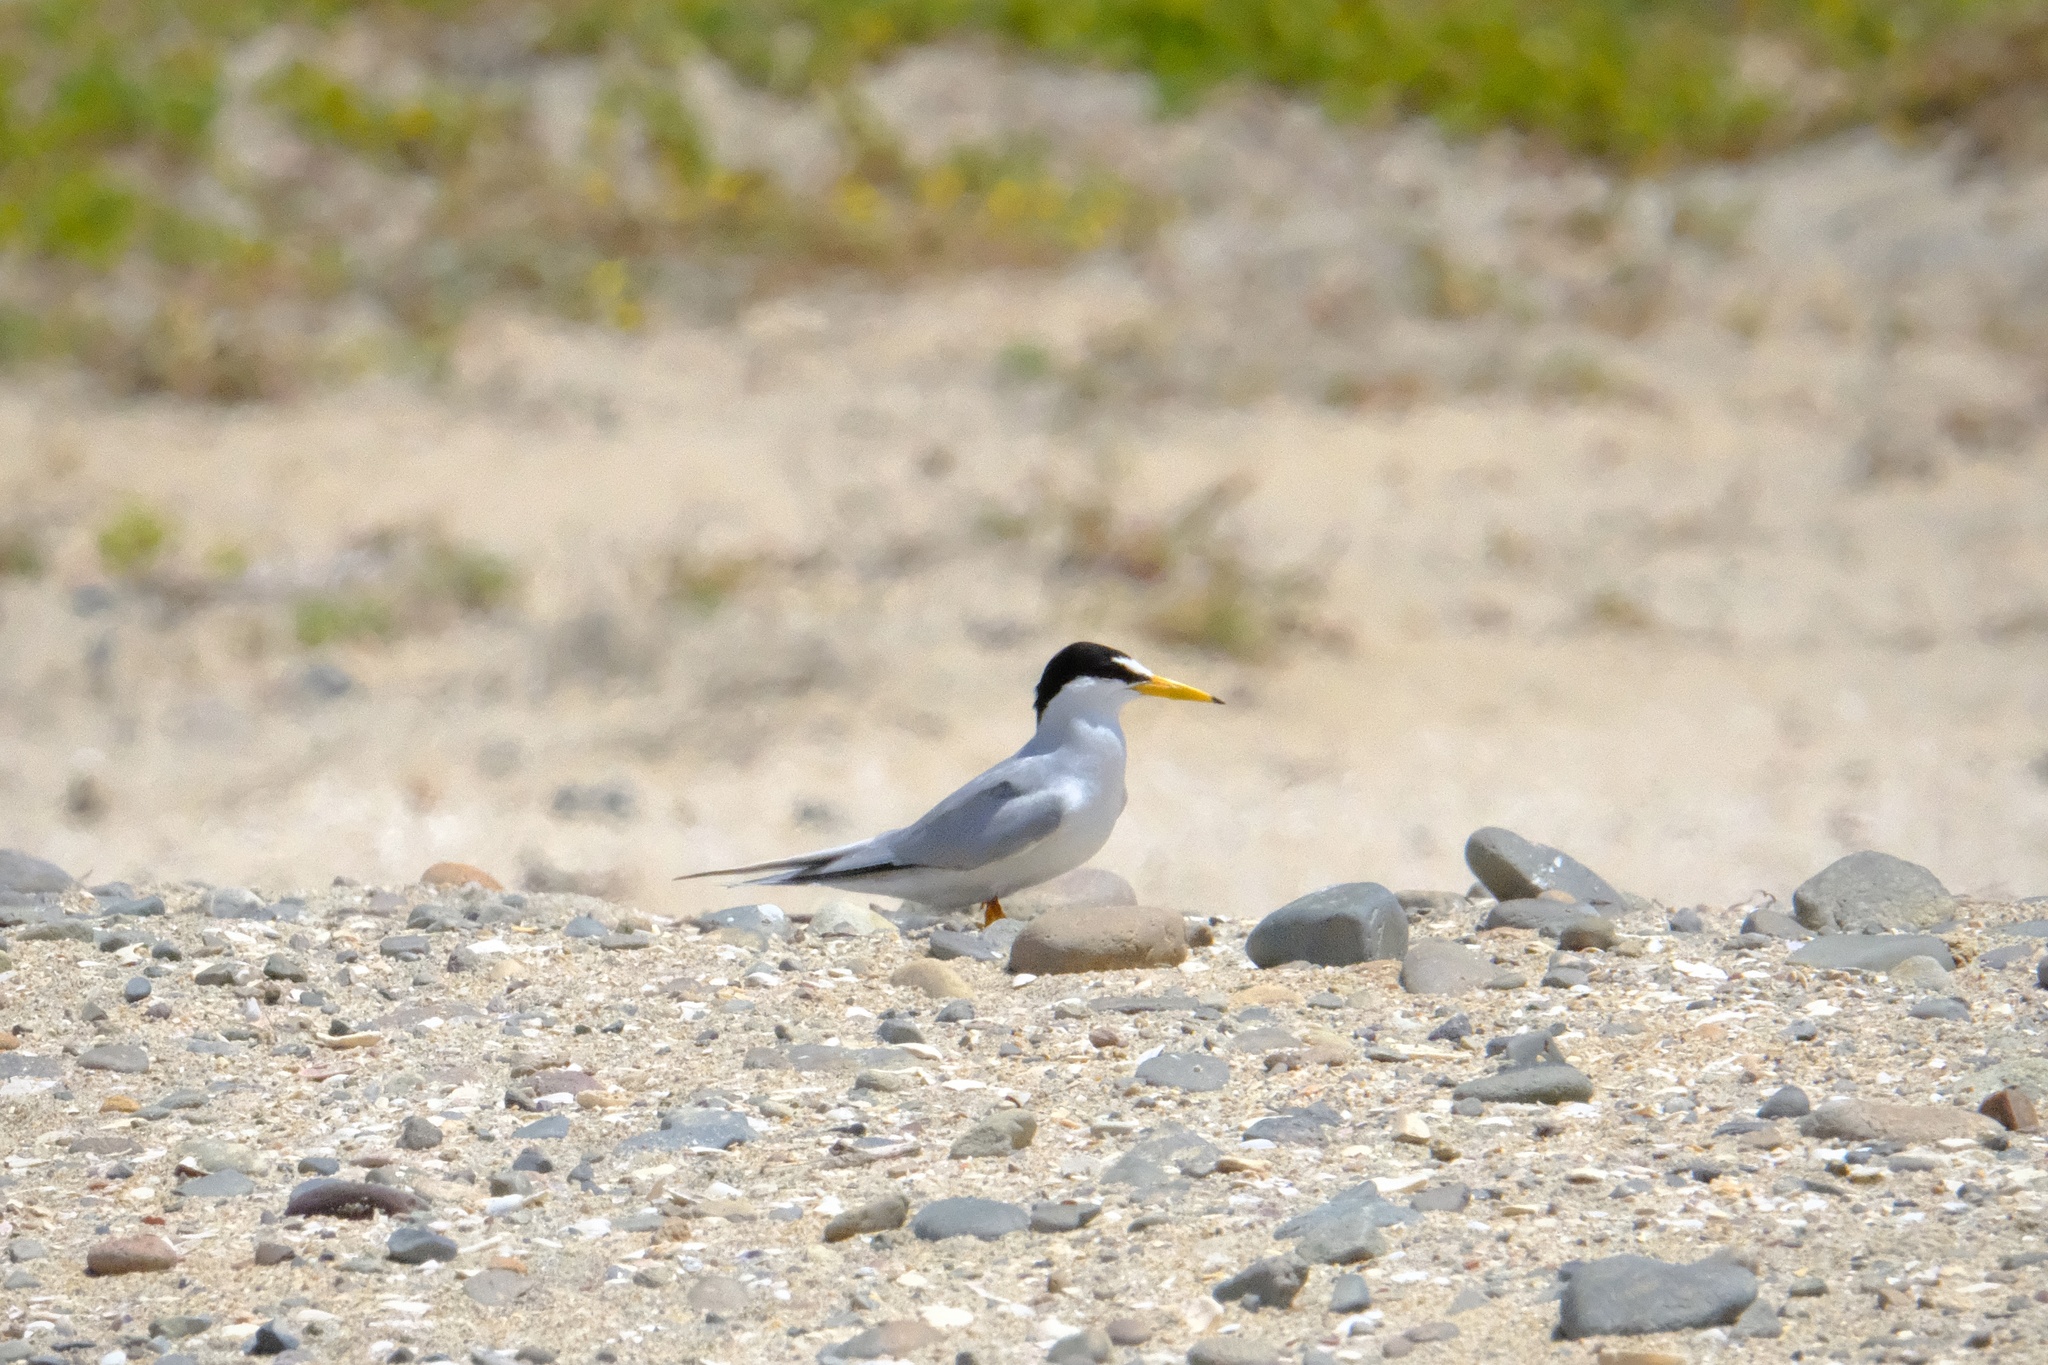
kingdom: Animalia
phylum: Chordata
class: Aves
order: Charadriiformes
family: Laridae
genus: Sternula
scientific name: Sternula antillarum
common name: Least tern
